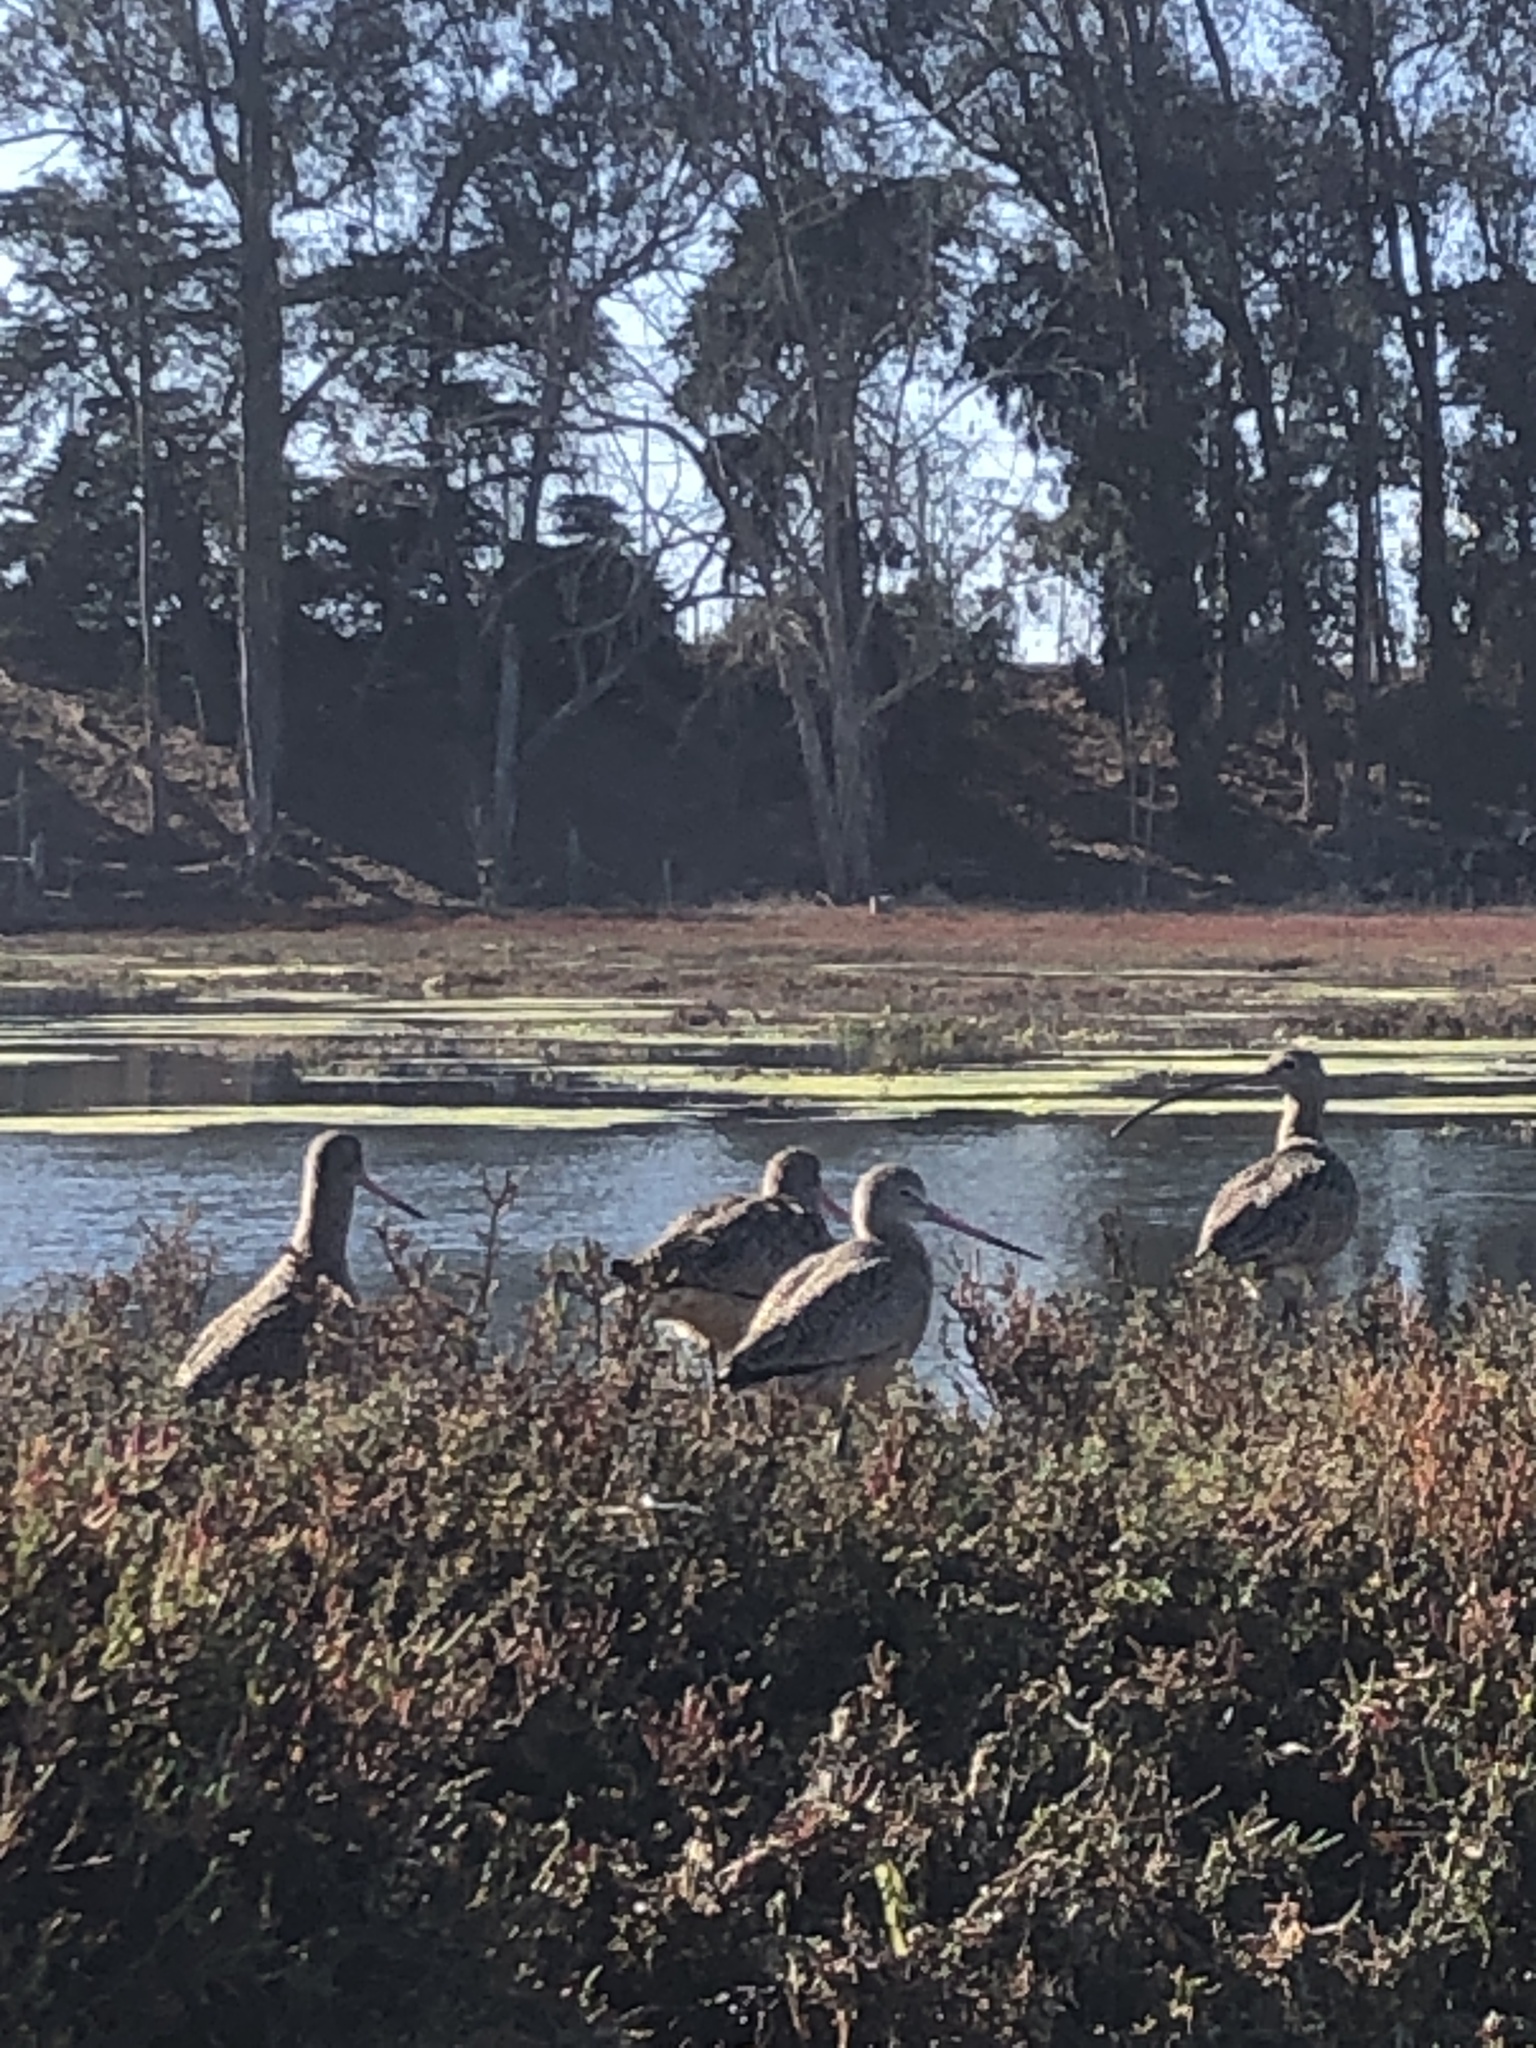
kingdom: Animalia
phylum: Chordata
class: Aves
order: Charadriiformes
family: Scolopacidae
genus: Limosa
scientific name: Limosa fedoa
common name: Marbled godwit
